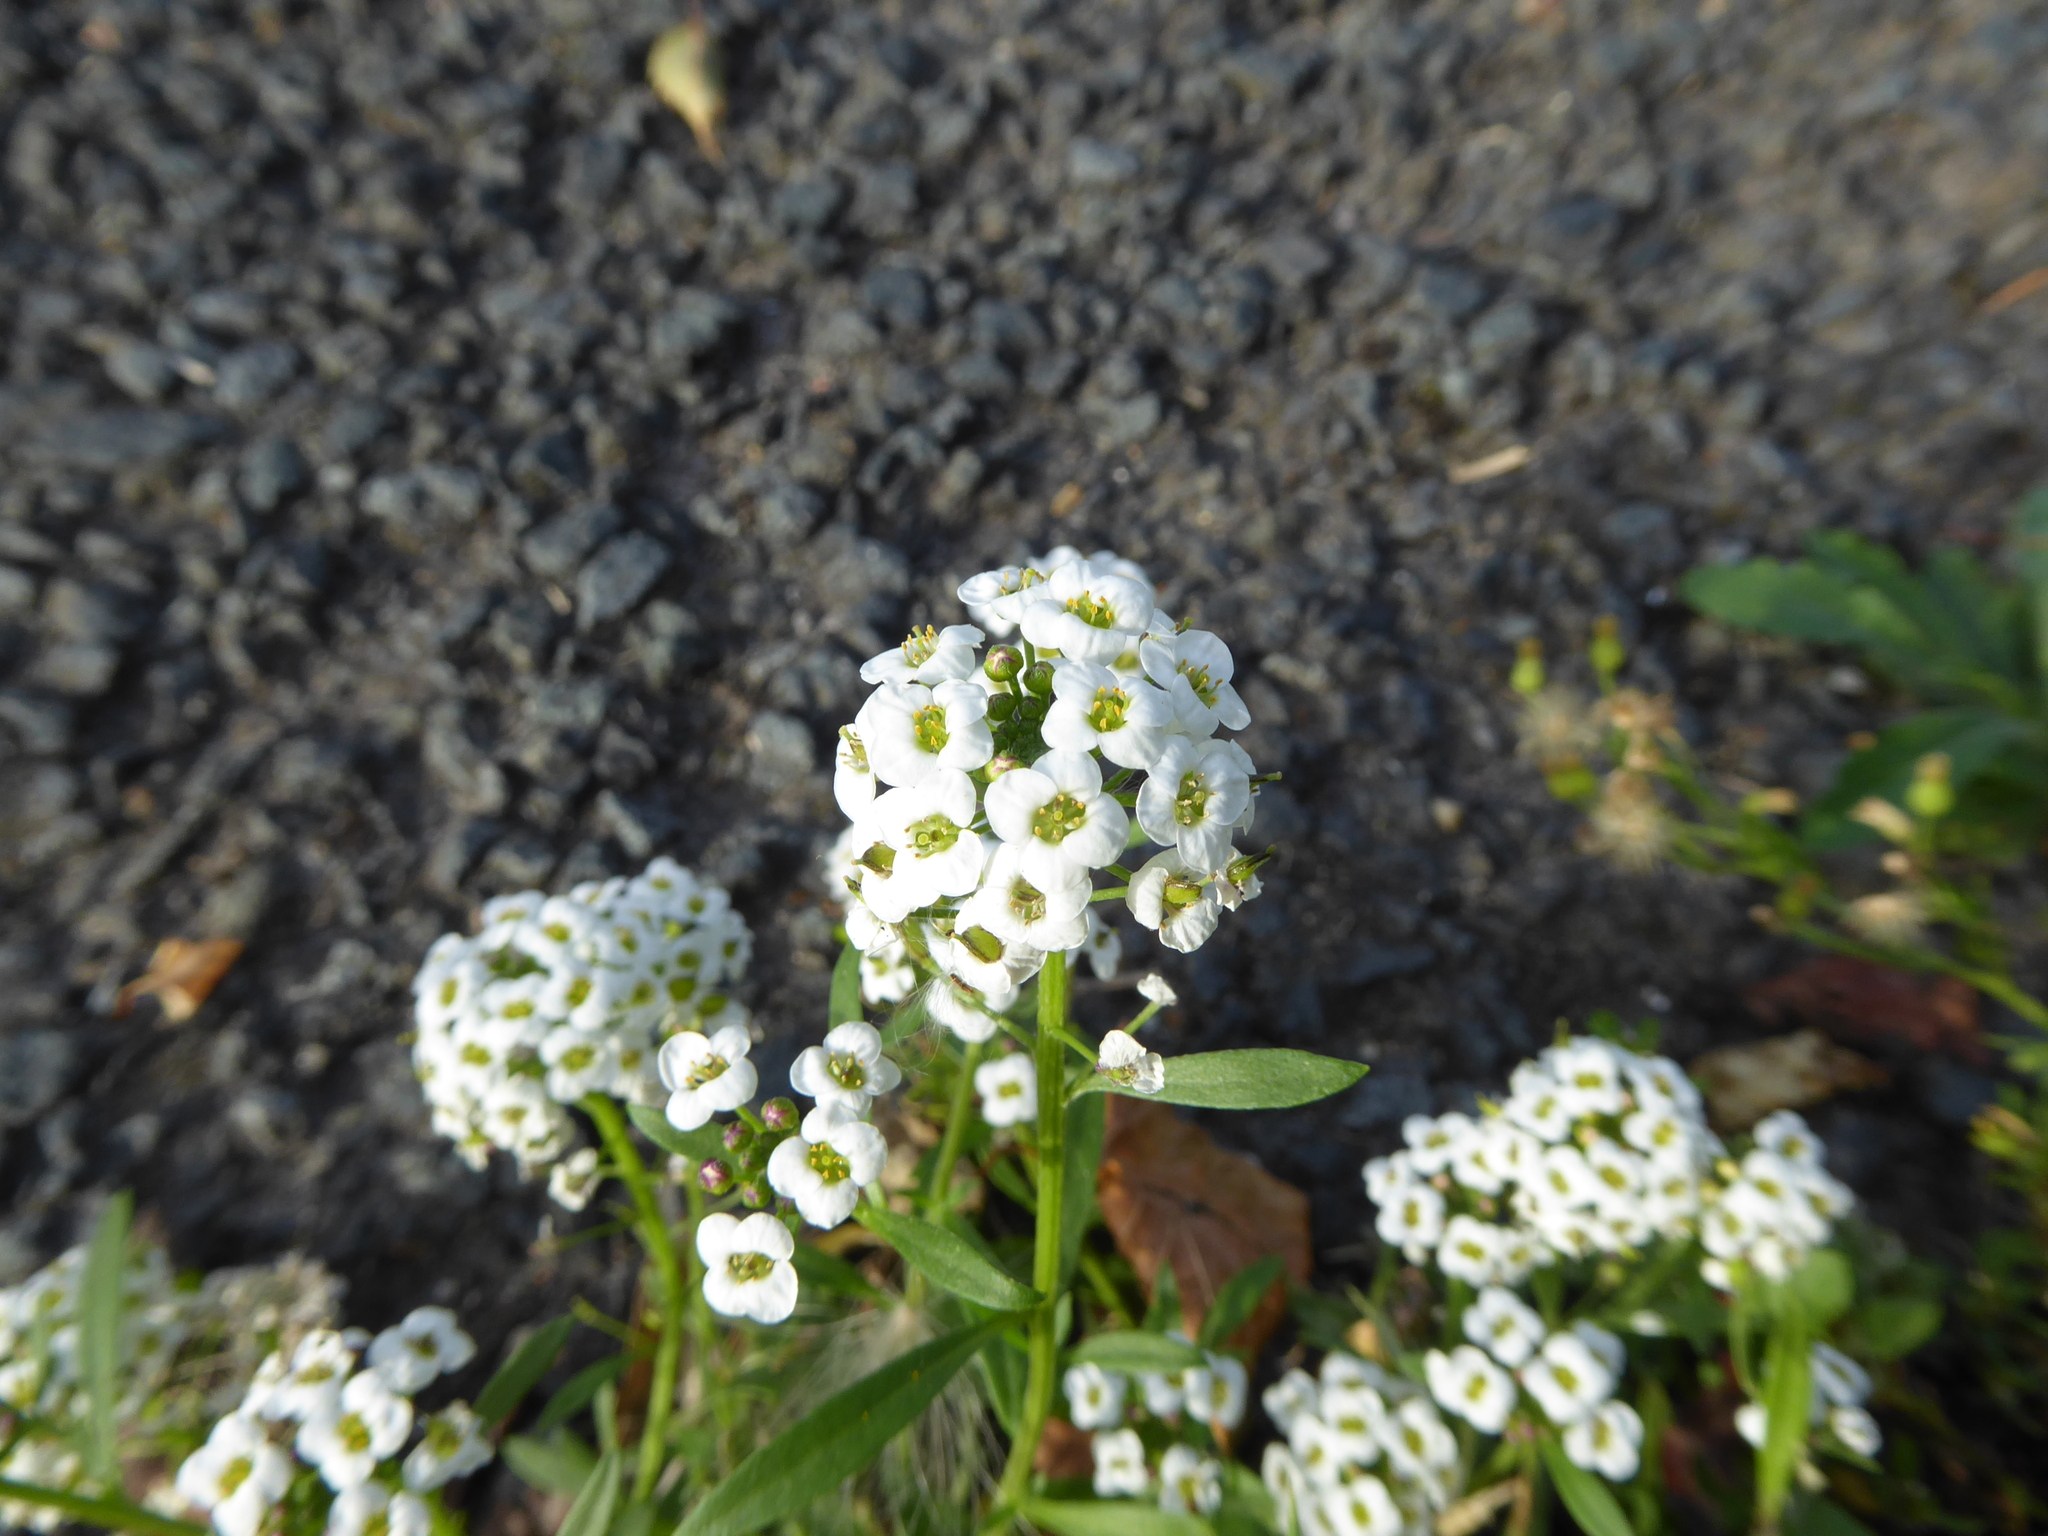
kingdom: Plantae
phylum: Tracheophyta
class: Magnoliopsida
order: Brassicales
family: Brassicaceae
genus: Lobularia
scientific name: Lobularia maritima
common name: Sweet alison
